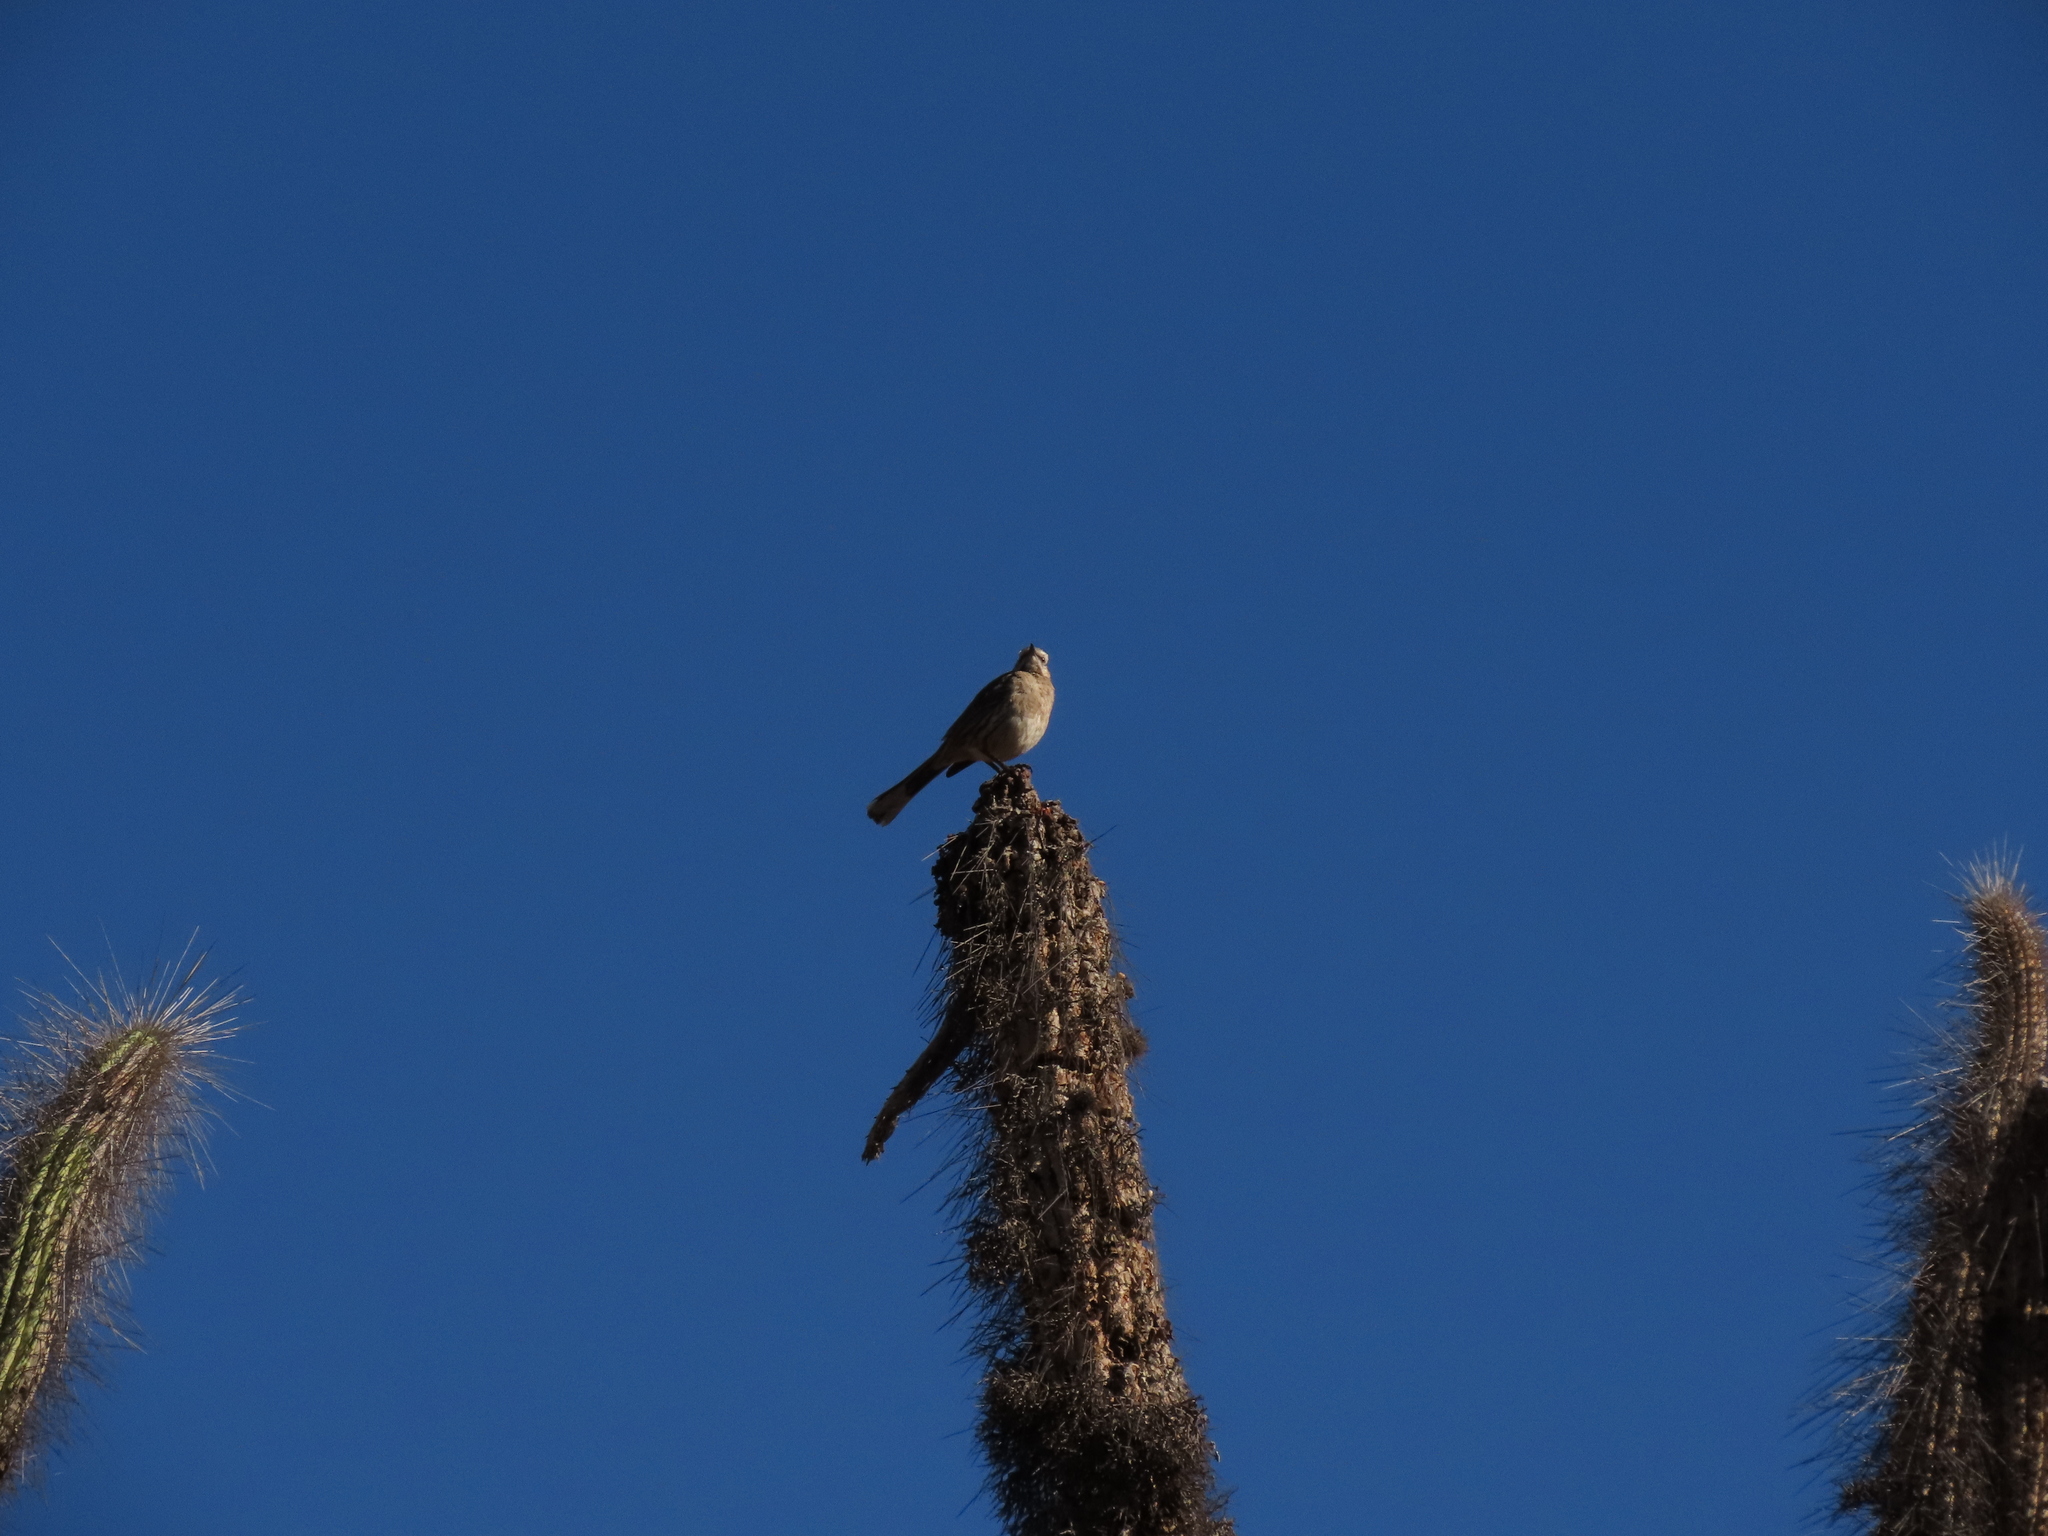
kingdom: Animalia
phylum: Chordata
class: Aves
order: Passeriformes
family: Mimidae
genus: Mimus
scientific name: Mimus thenca
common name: Chilean mockingbird
